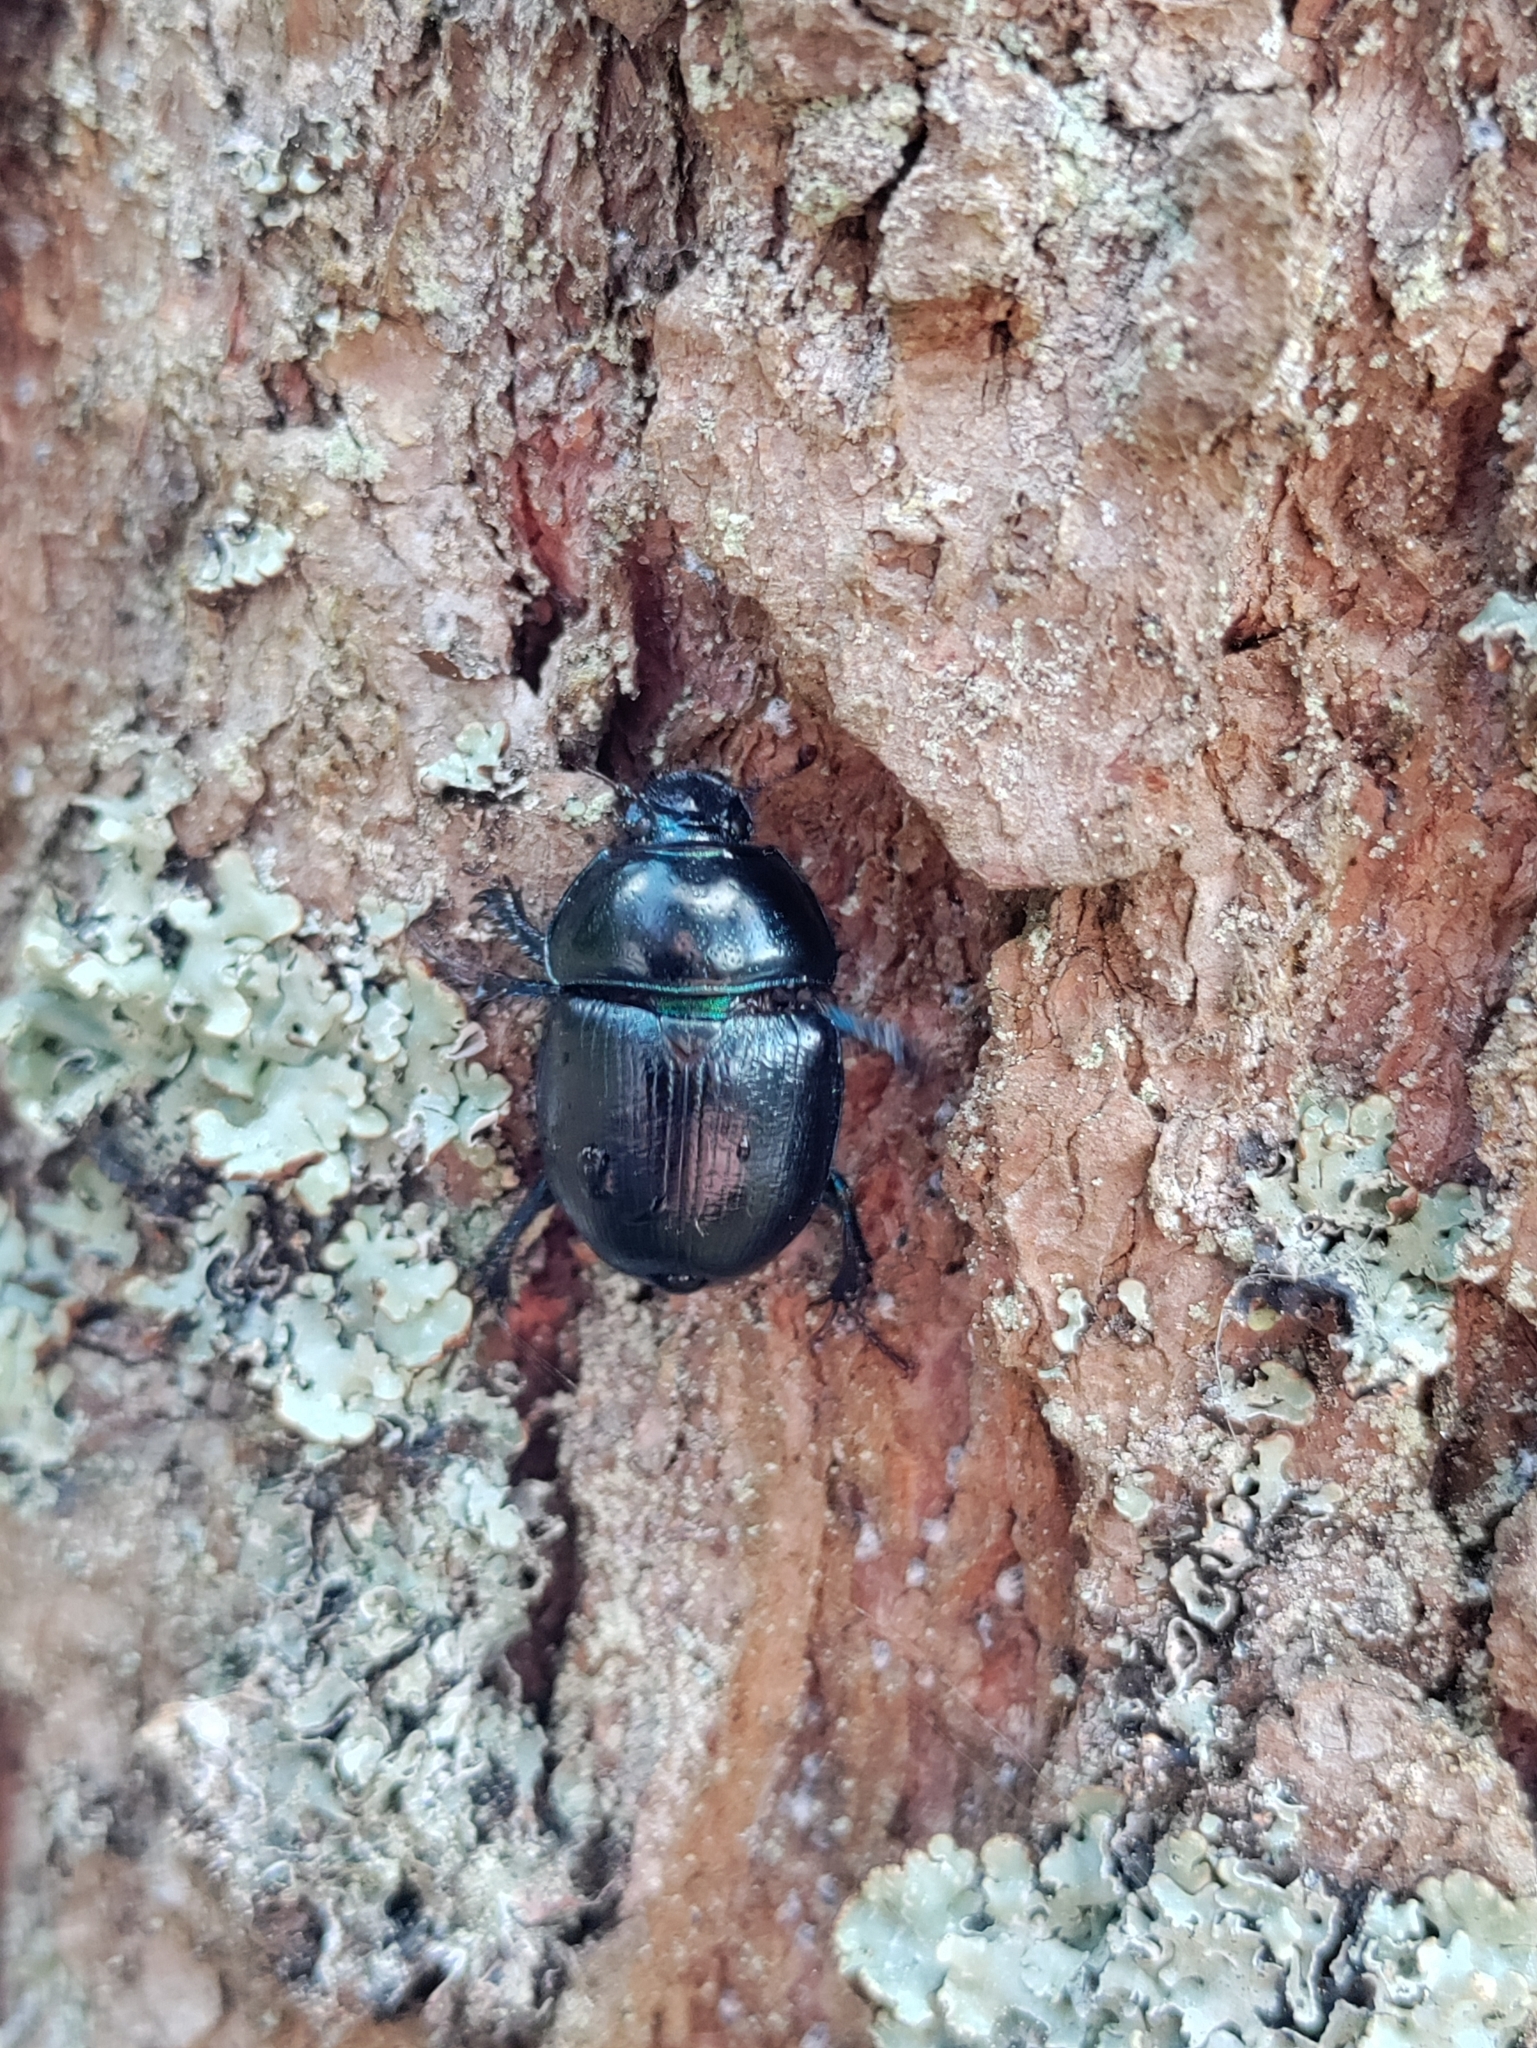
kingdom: Animalia
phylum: Arthropoda
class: Insecta
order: Coleoptera
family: Geotrupidae
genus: Anoplotrupes
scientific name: Anoplotrupes stercorosus
